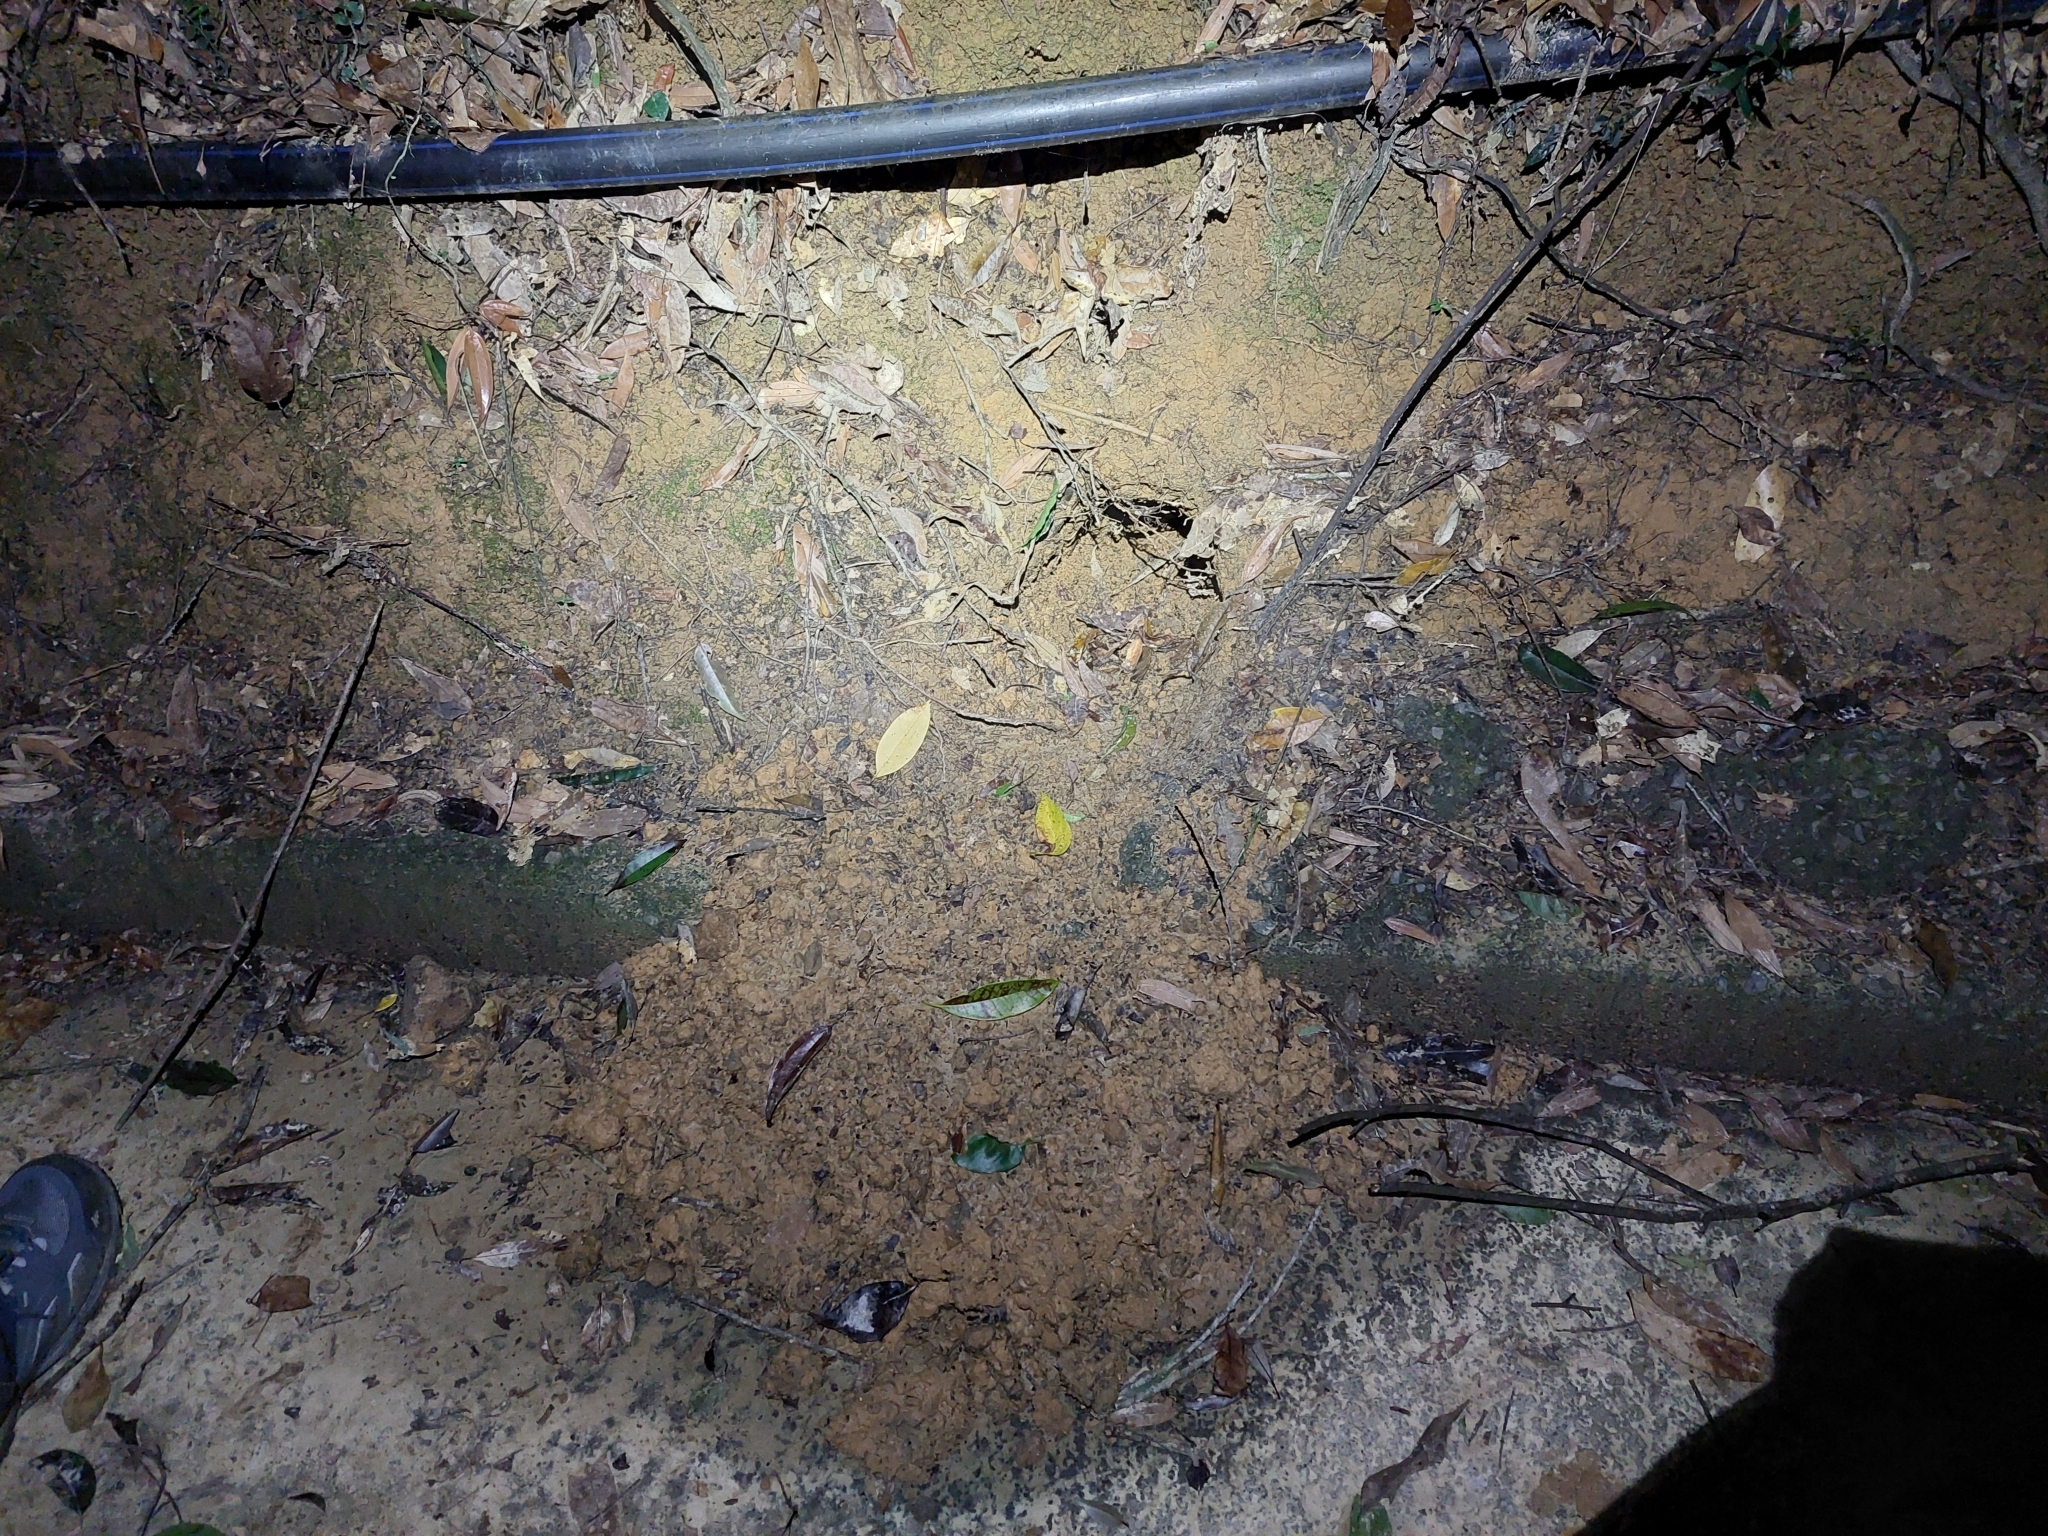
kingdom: Animalia
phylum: Chordata
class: Mammalia
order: Pholidota
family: Manidae
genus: Manis
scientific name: Manis pentadactyla
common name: Chinese pangolin
